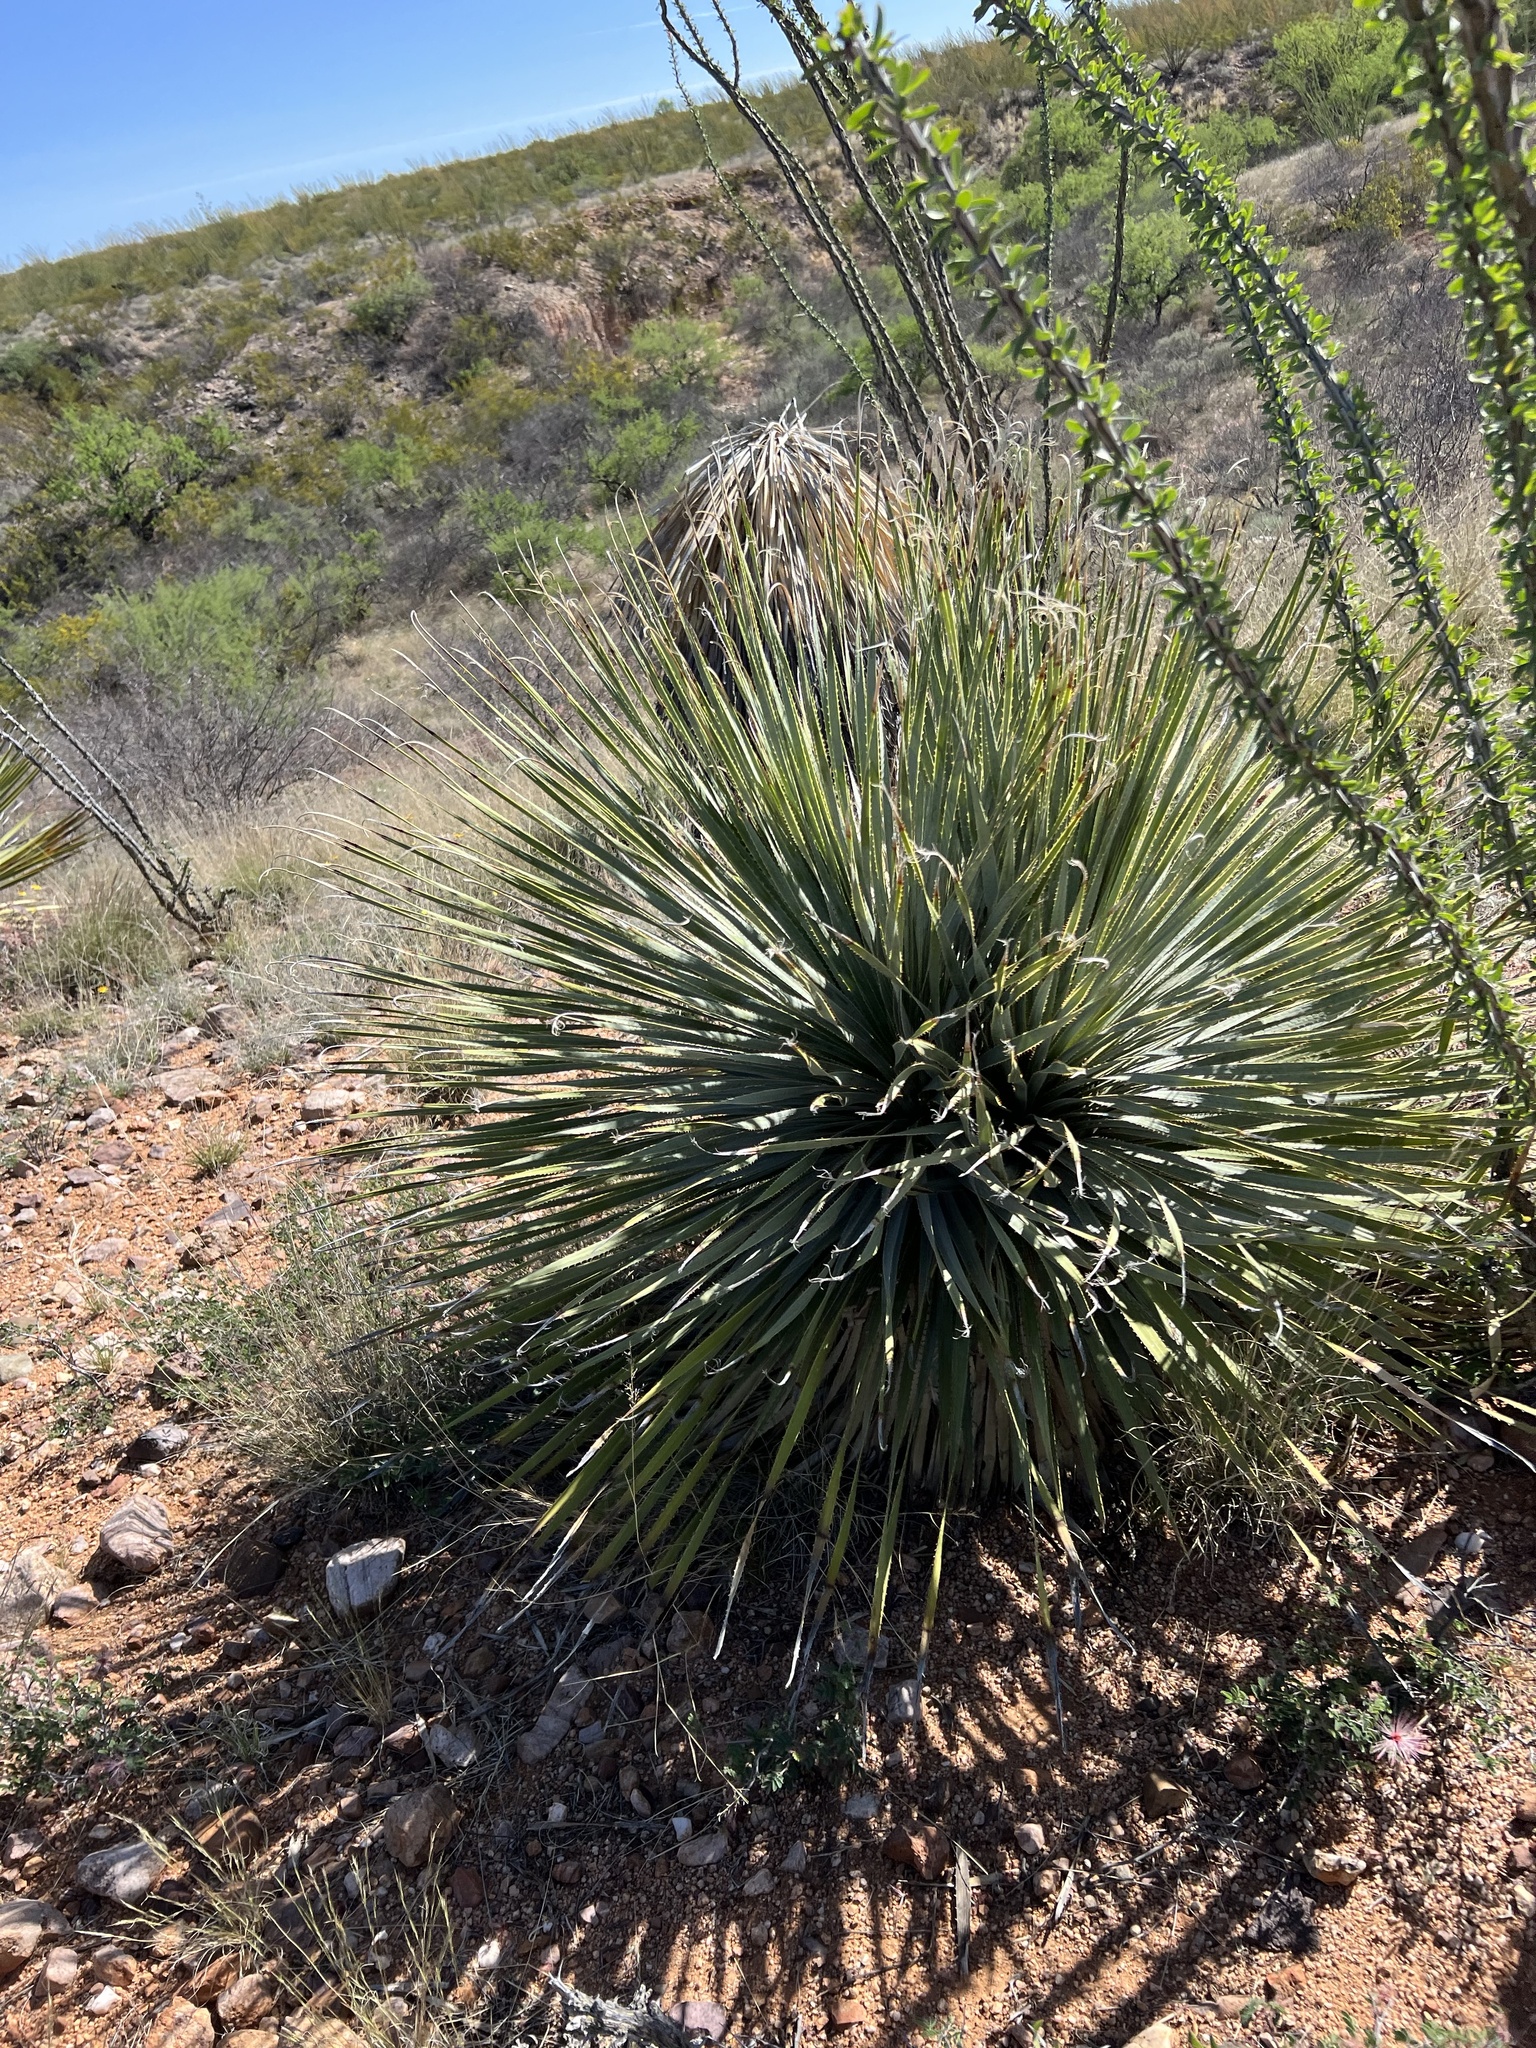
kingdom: Plantae
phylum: Tracheophyta
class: Liliopsida
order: Asparagales
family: Asparagaceae
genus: Dasylirion
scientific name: Dasylirion wheeleri
